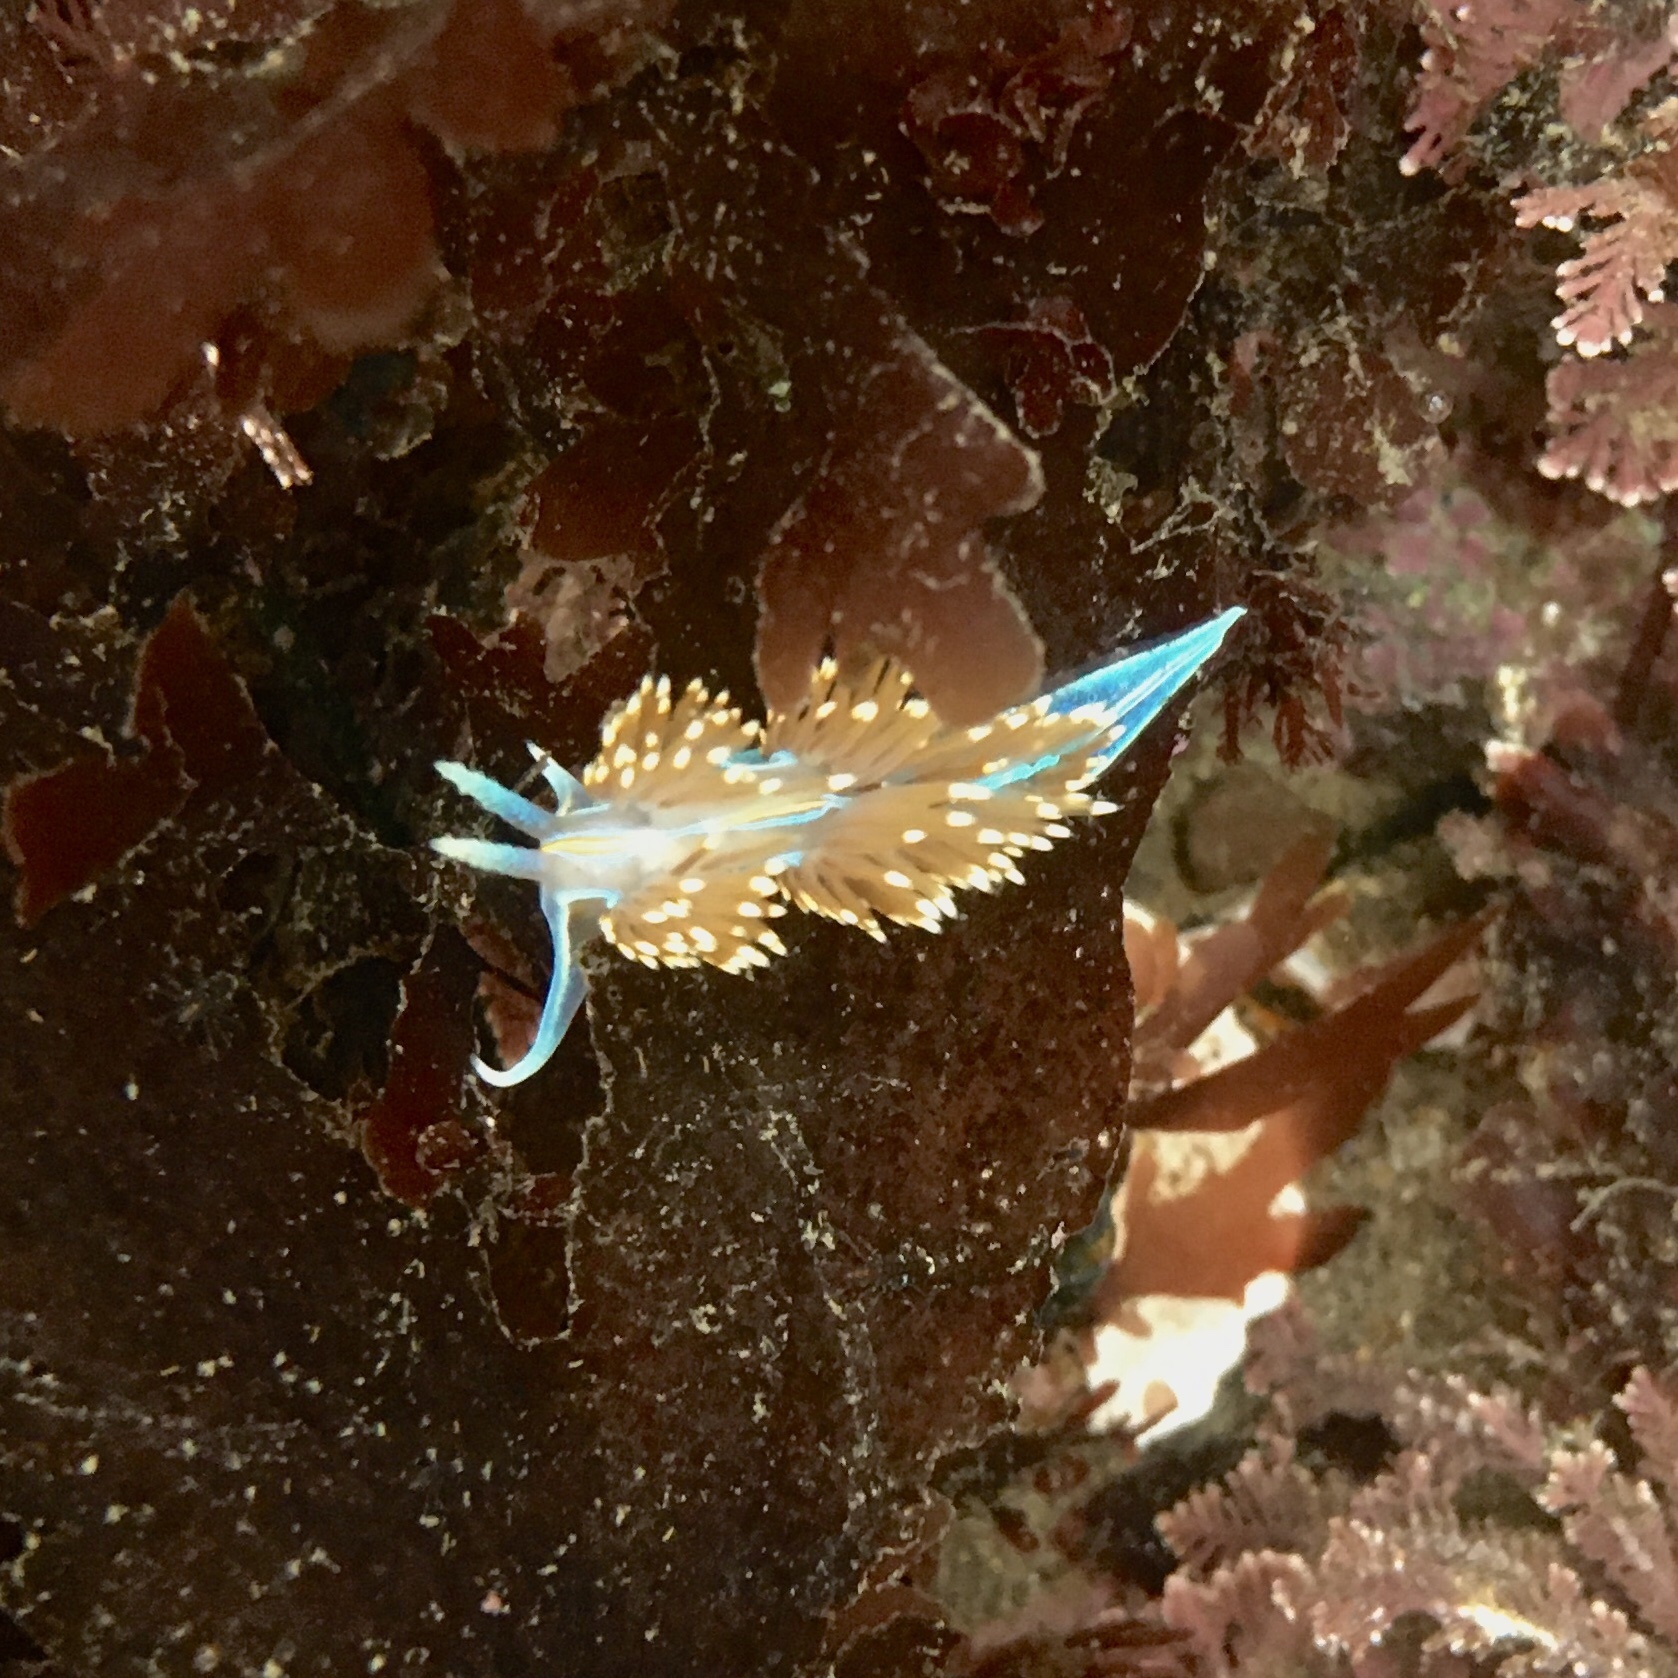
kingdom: Animalia
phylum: Mollusca
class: Gastropoda
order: Nudibranchia
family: Myrrhinidae
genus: Hermissenda
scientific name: Hermissenda opalescens
